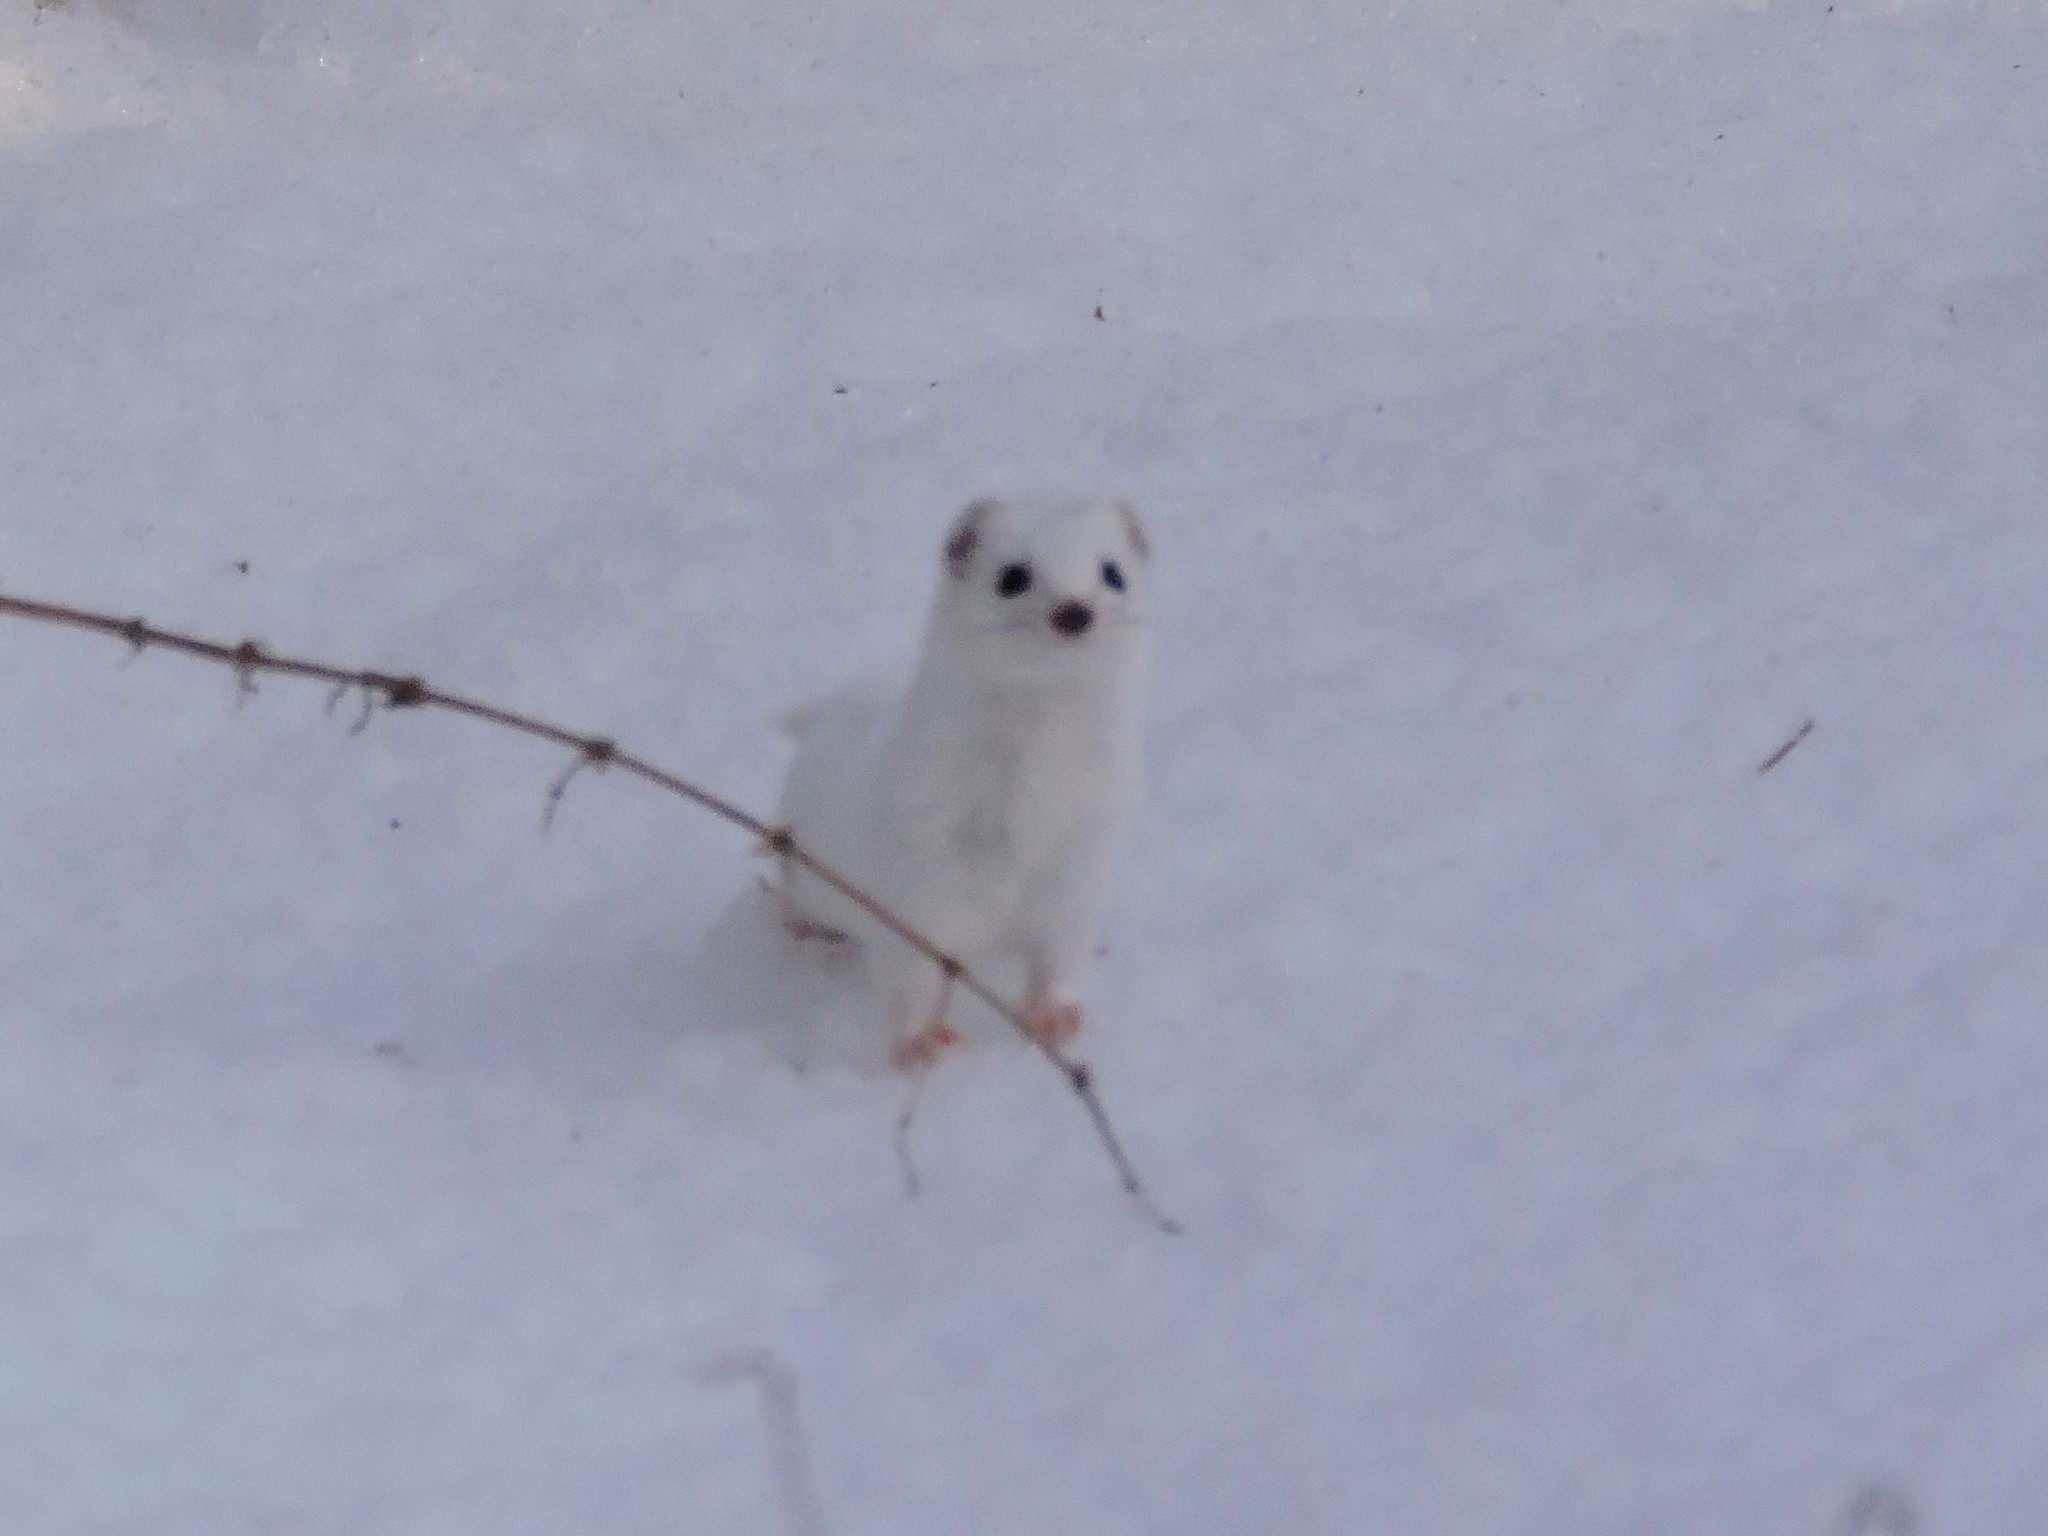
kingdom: Animalia
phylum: Chordata
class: Mammalia
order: Carnivora
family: Mustelidae
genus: Mustela
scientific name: Mustela nivalis
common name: Least weasel
